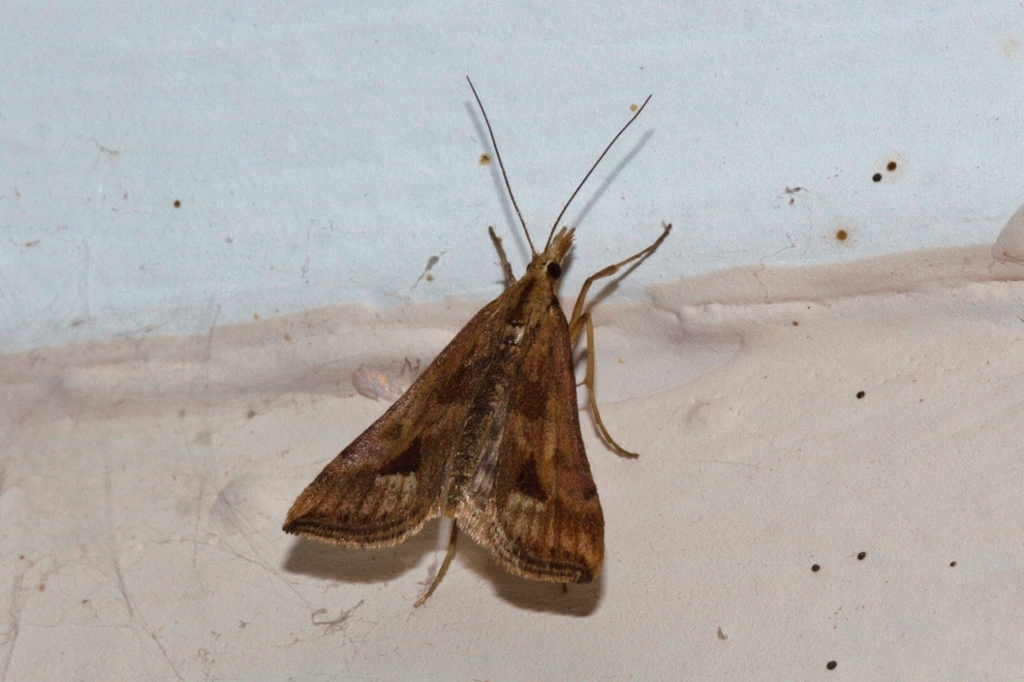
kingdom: Animalia
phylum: Arthropoda
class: Insecta
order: Lepidoptera
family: Crambidae
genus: Diasemia
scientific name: Diasemia monostigma
